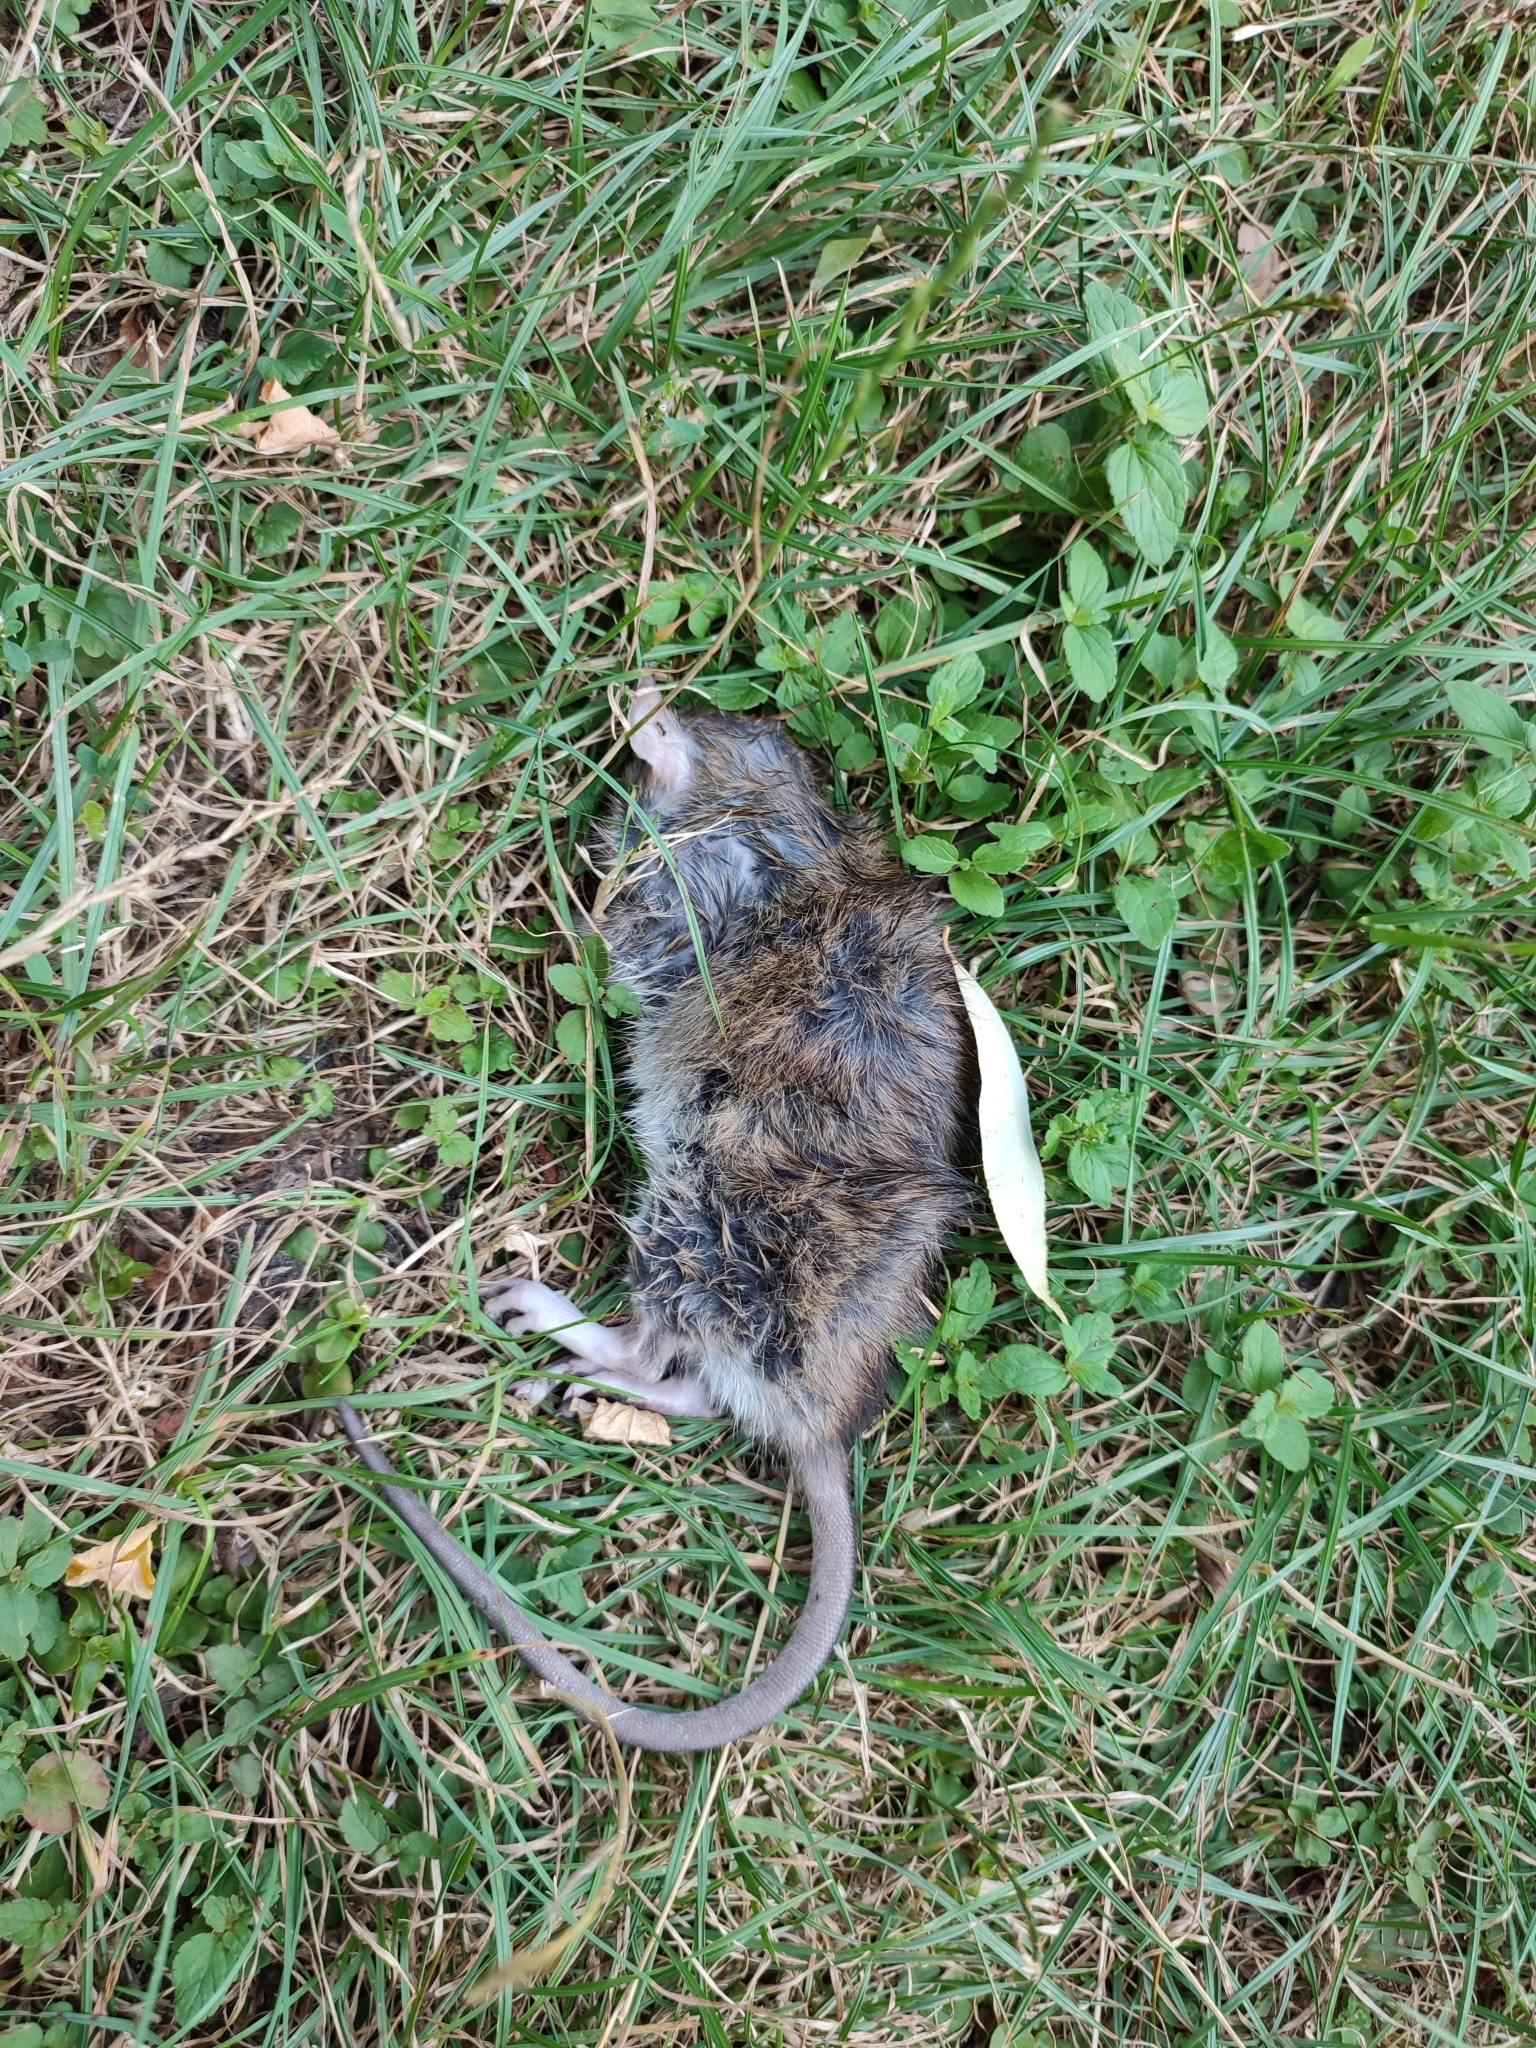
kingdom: Animalia
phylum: Chordata
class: Mammalia
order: Rodentia
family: Muridae
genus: Rattus
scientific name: Rattus norvegicus
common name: Brown rat
